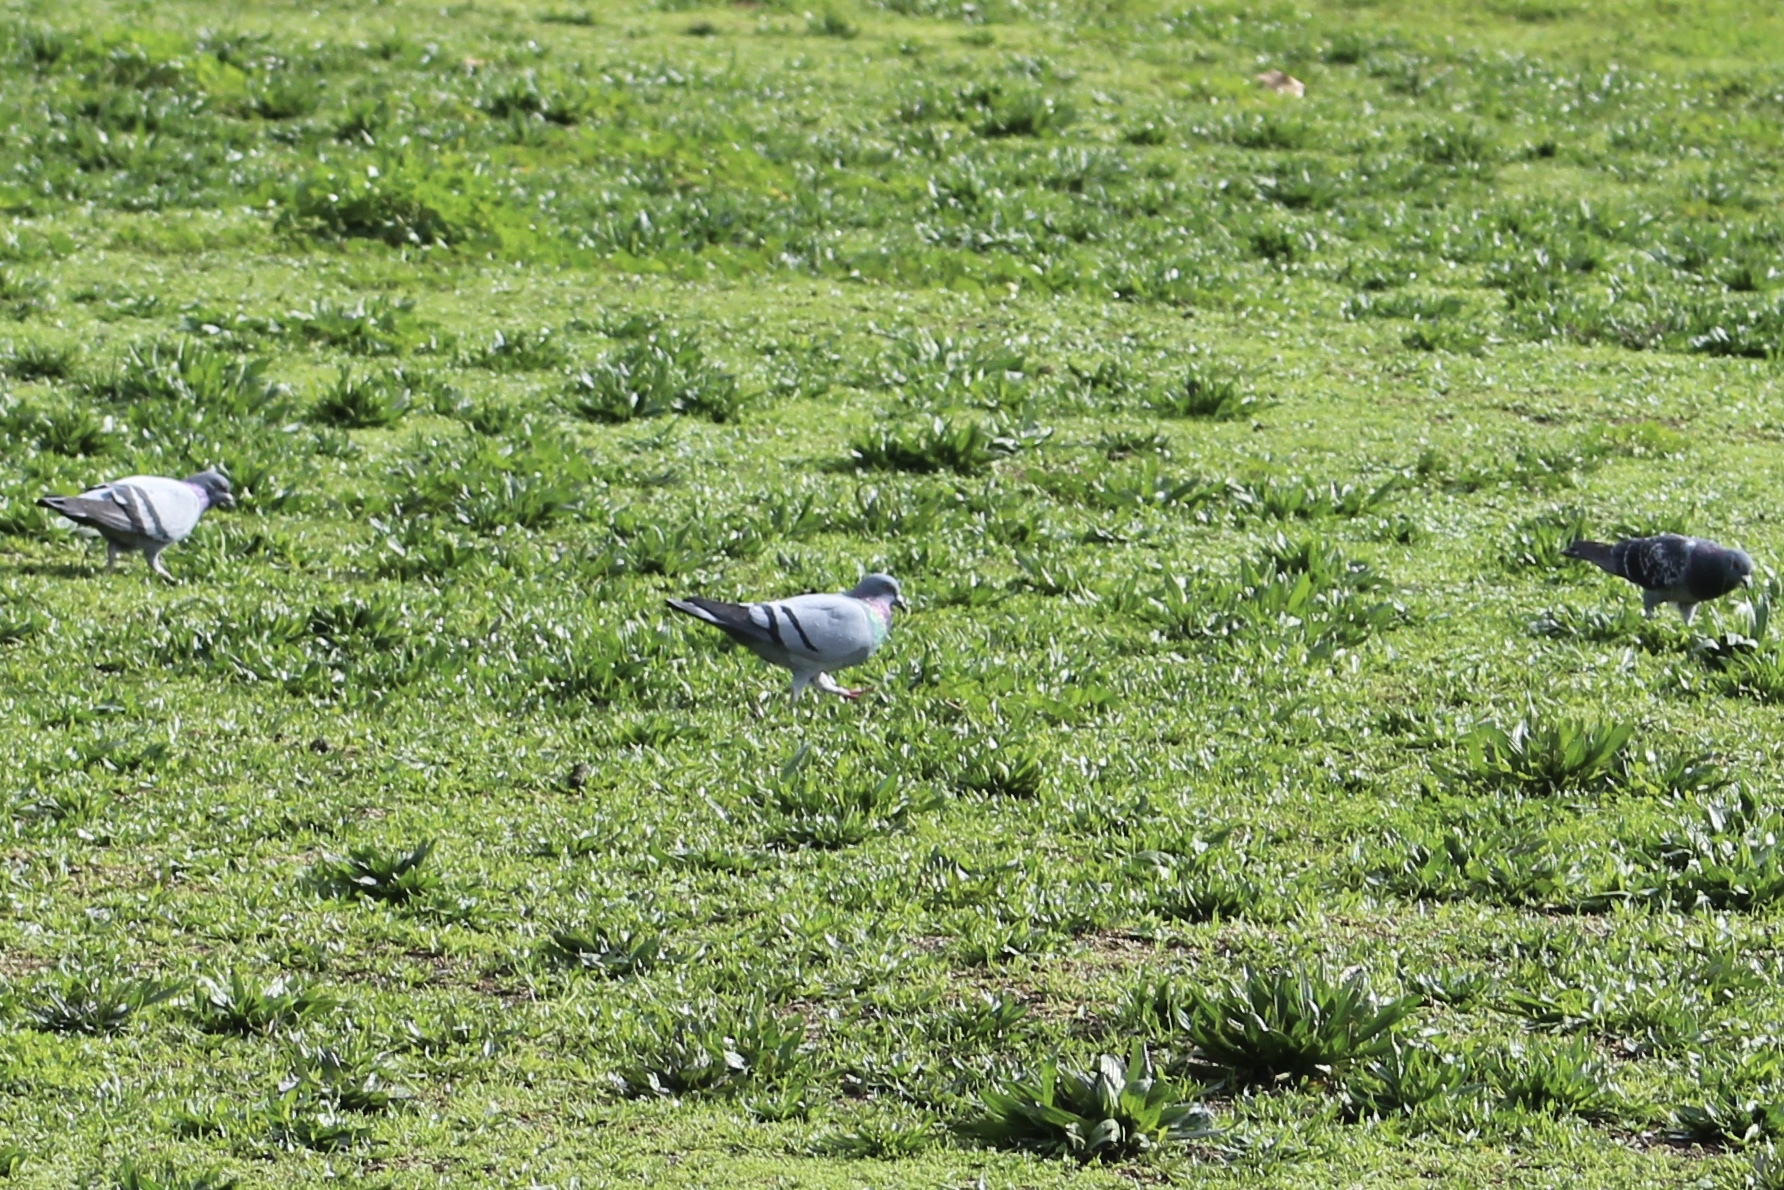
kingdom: Animalia
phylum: Chordata
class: Aves
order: Columbiformes
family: Columbidae
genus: Columba
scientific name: Columba livia
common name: Rock pigeon
